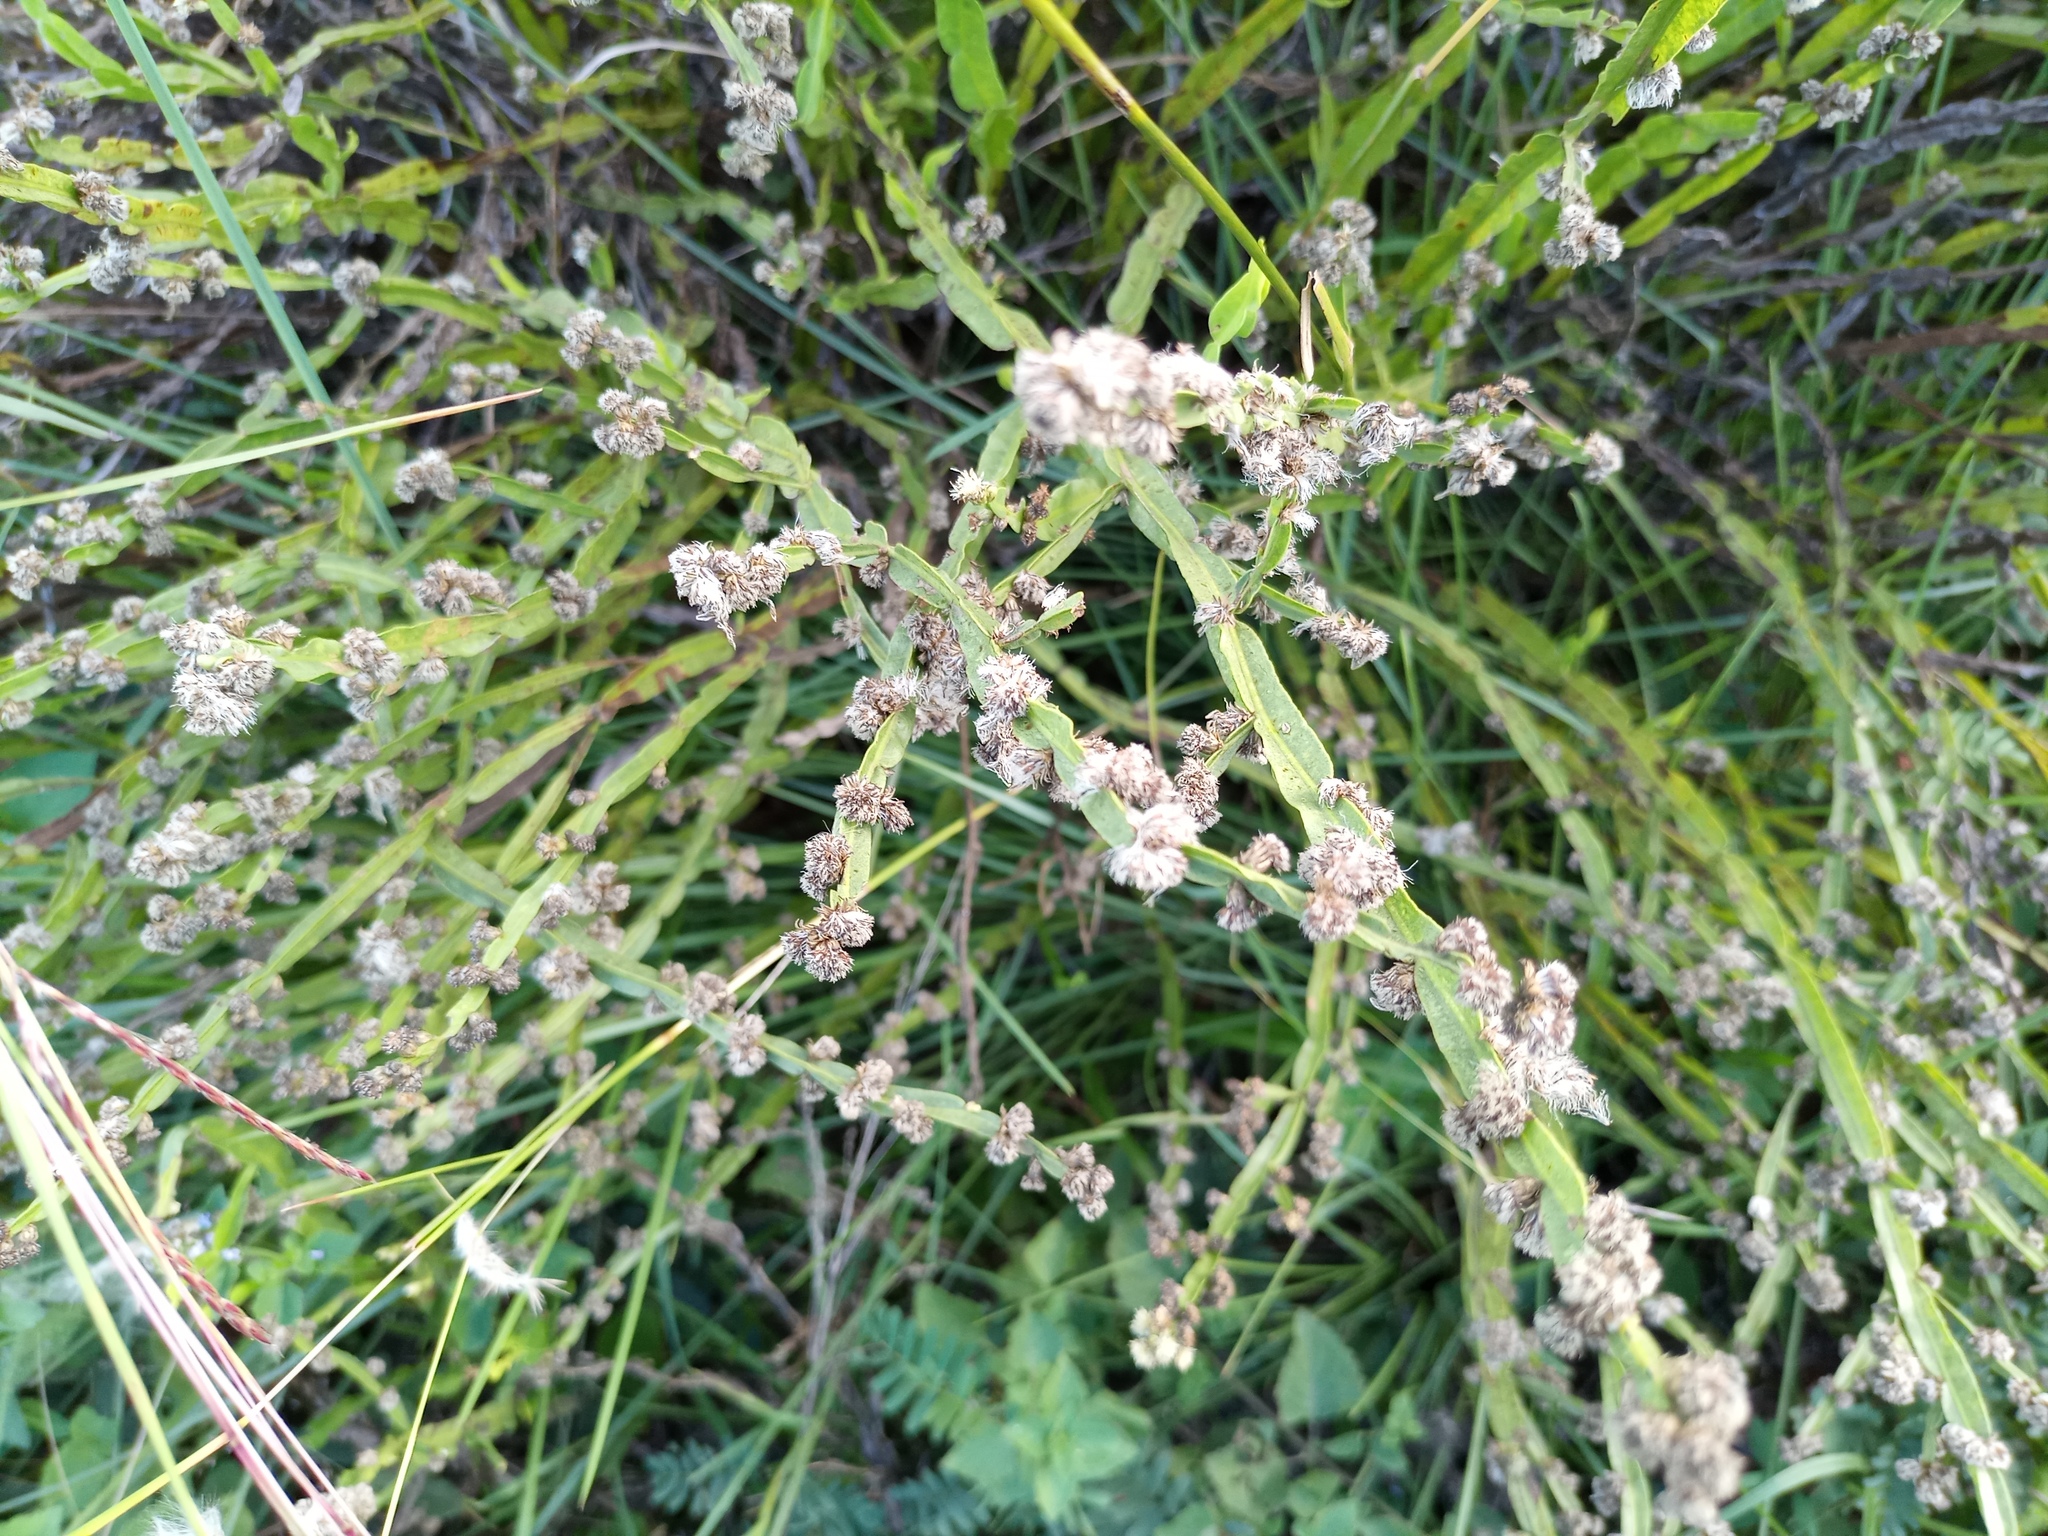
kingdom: Plantae
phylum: Tracheophyta
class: Magnoliopsida
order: Asterales
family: Asteraceae
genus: Baccharis
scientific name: Baccharis trimera
